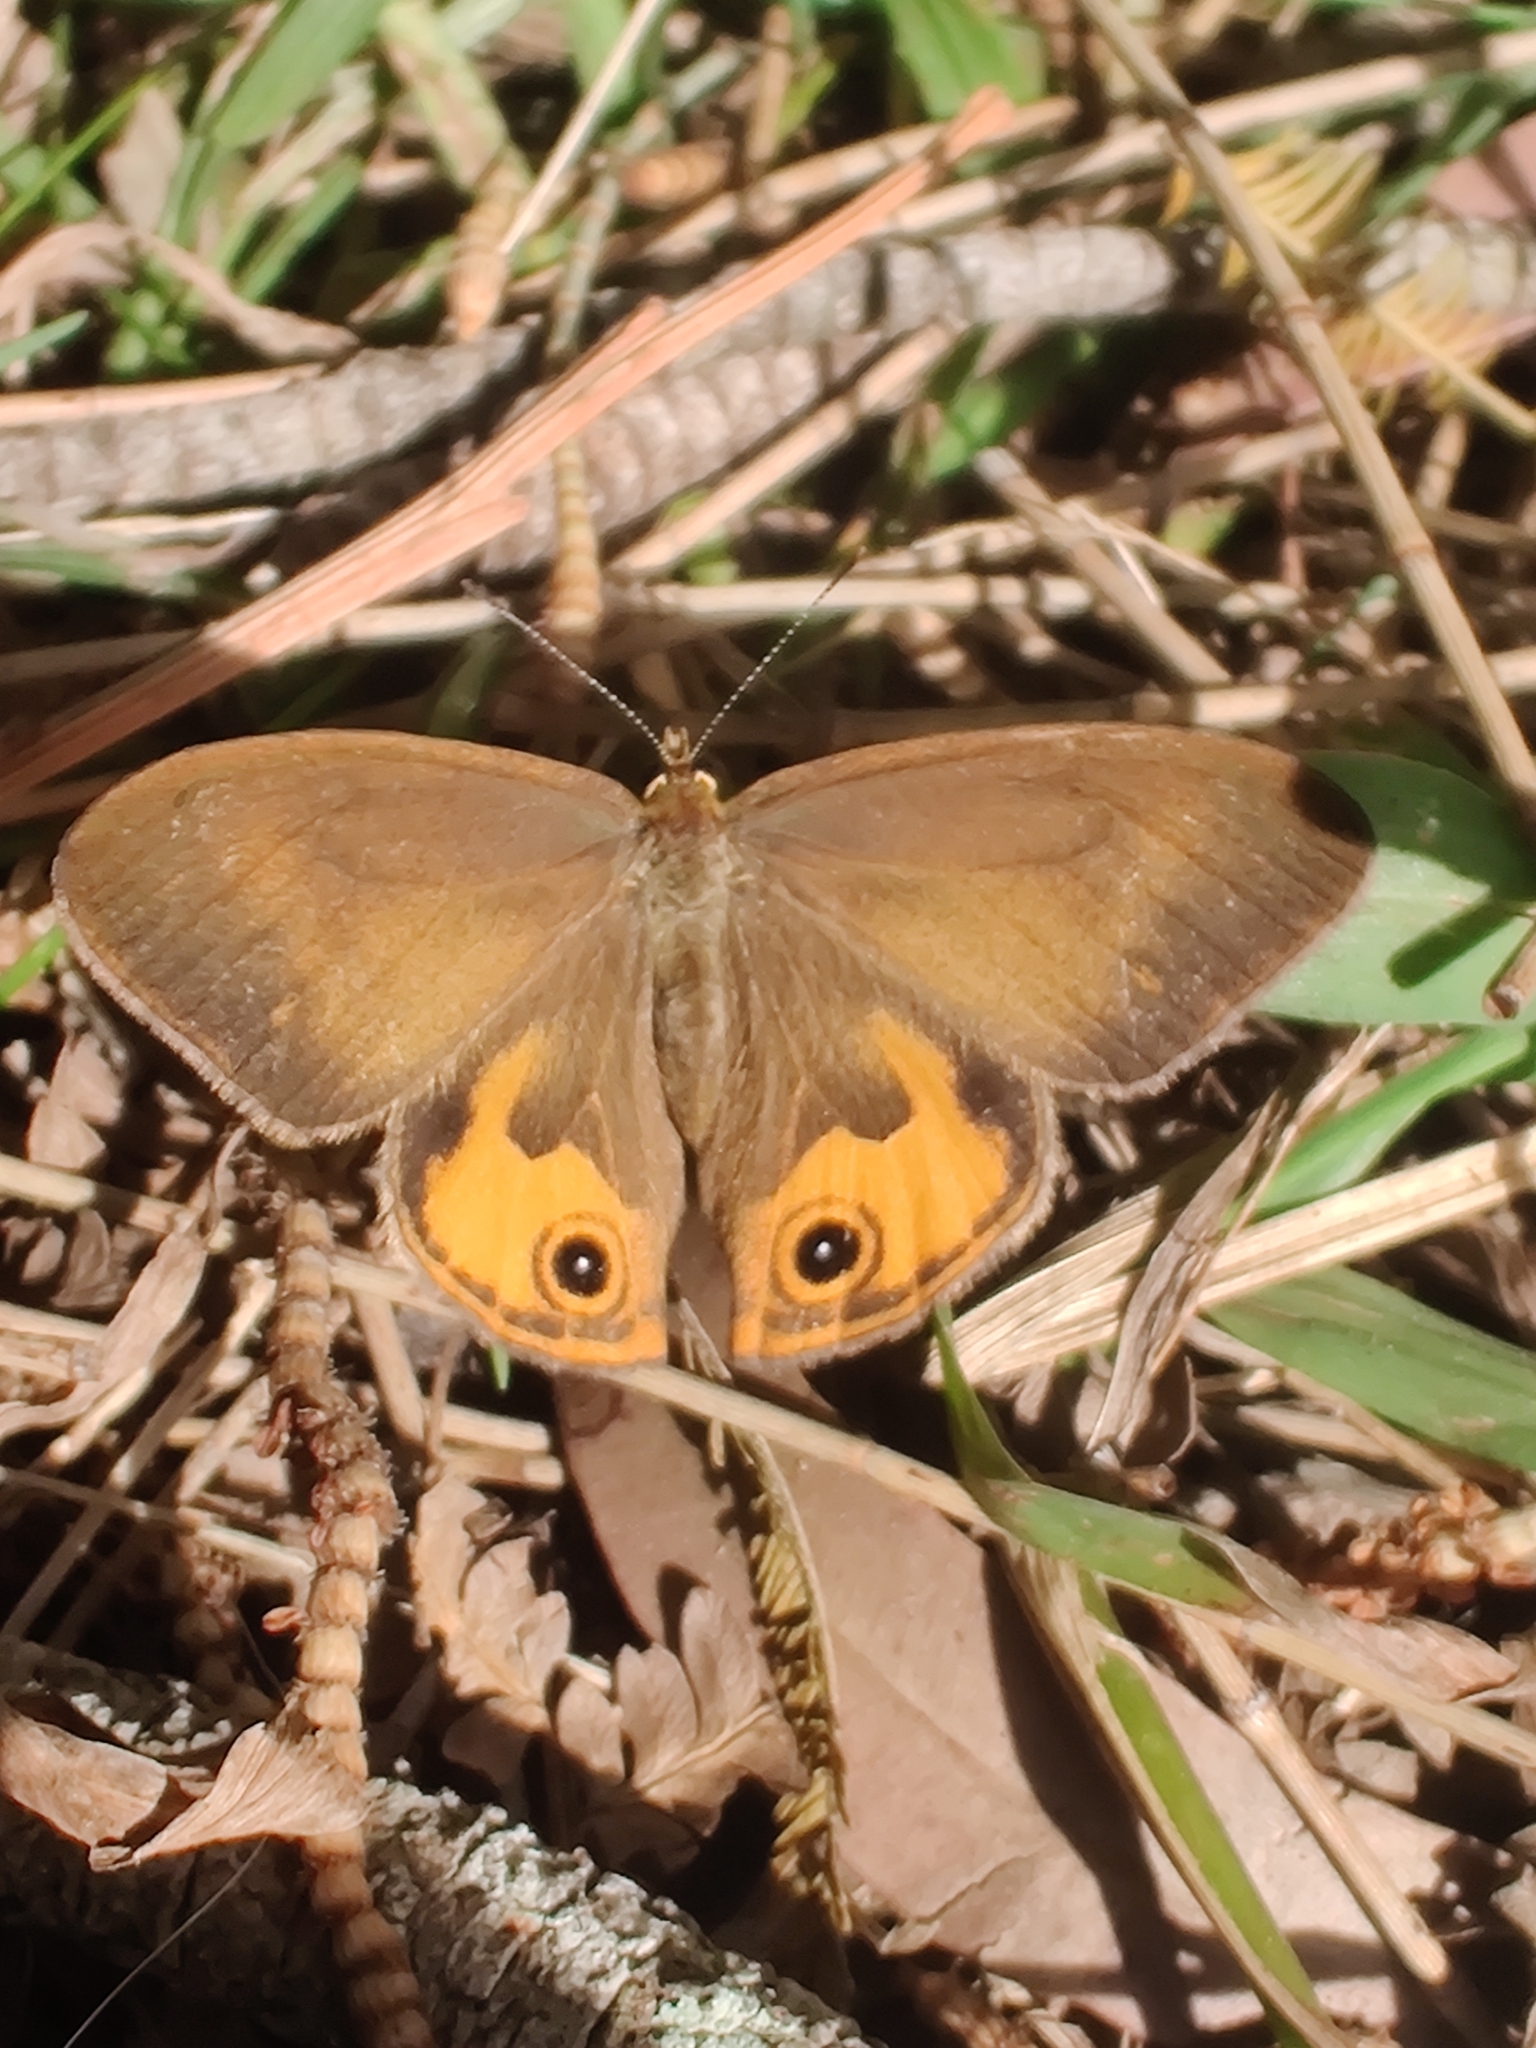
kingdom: Animalia
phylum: Arthropoda
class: Insecta
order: Lepidoptera
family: Nymphalidae
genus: Hypocysta
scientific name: Hypocysta metirius
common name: Brown ringlet
